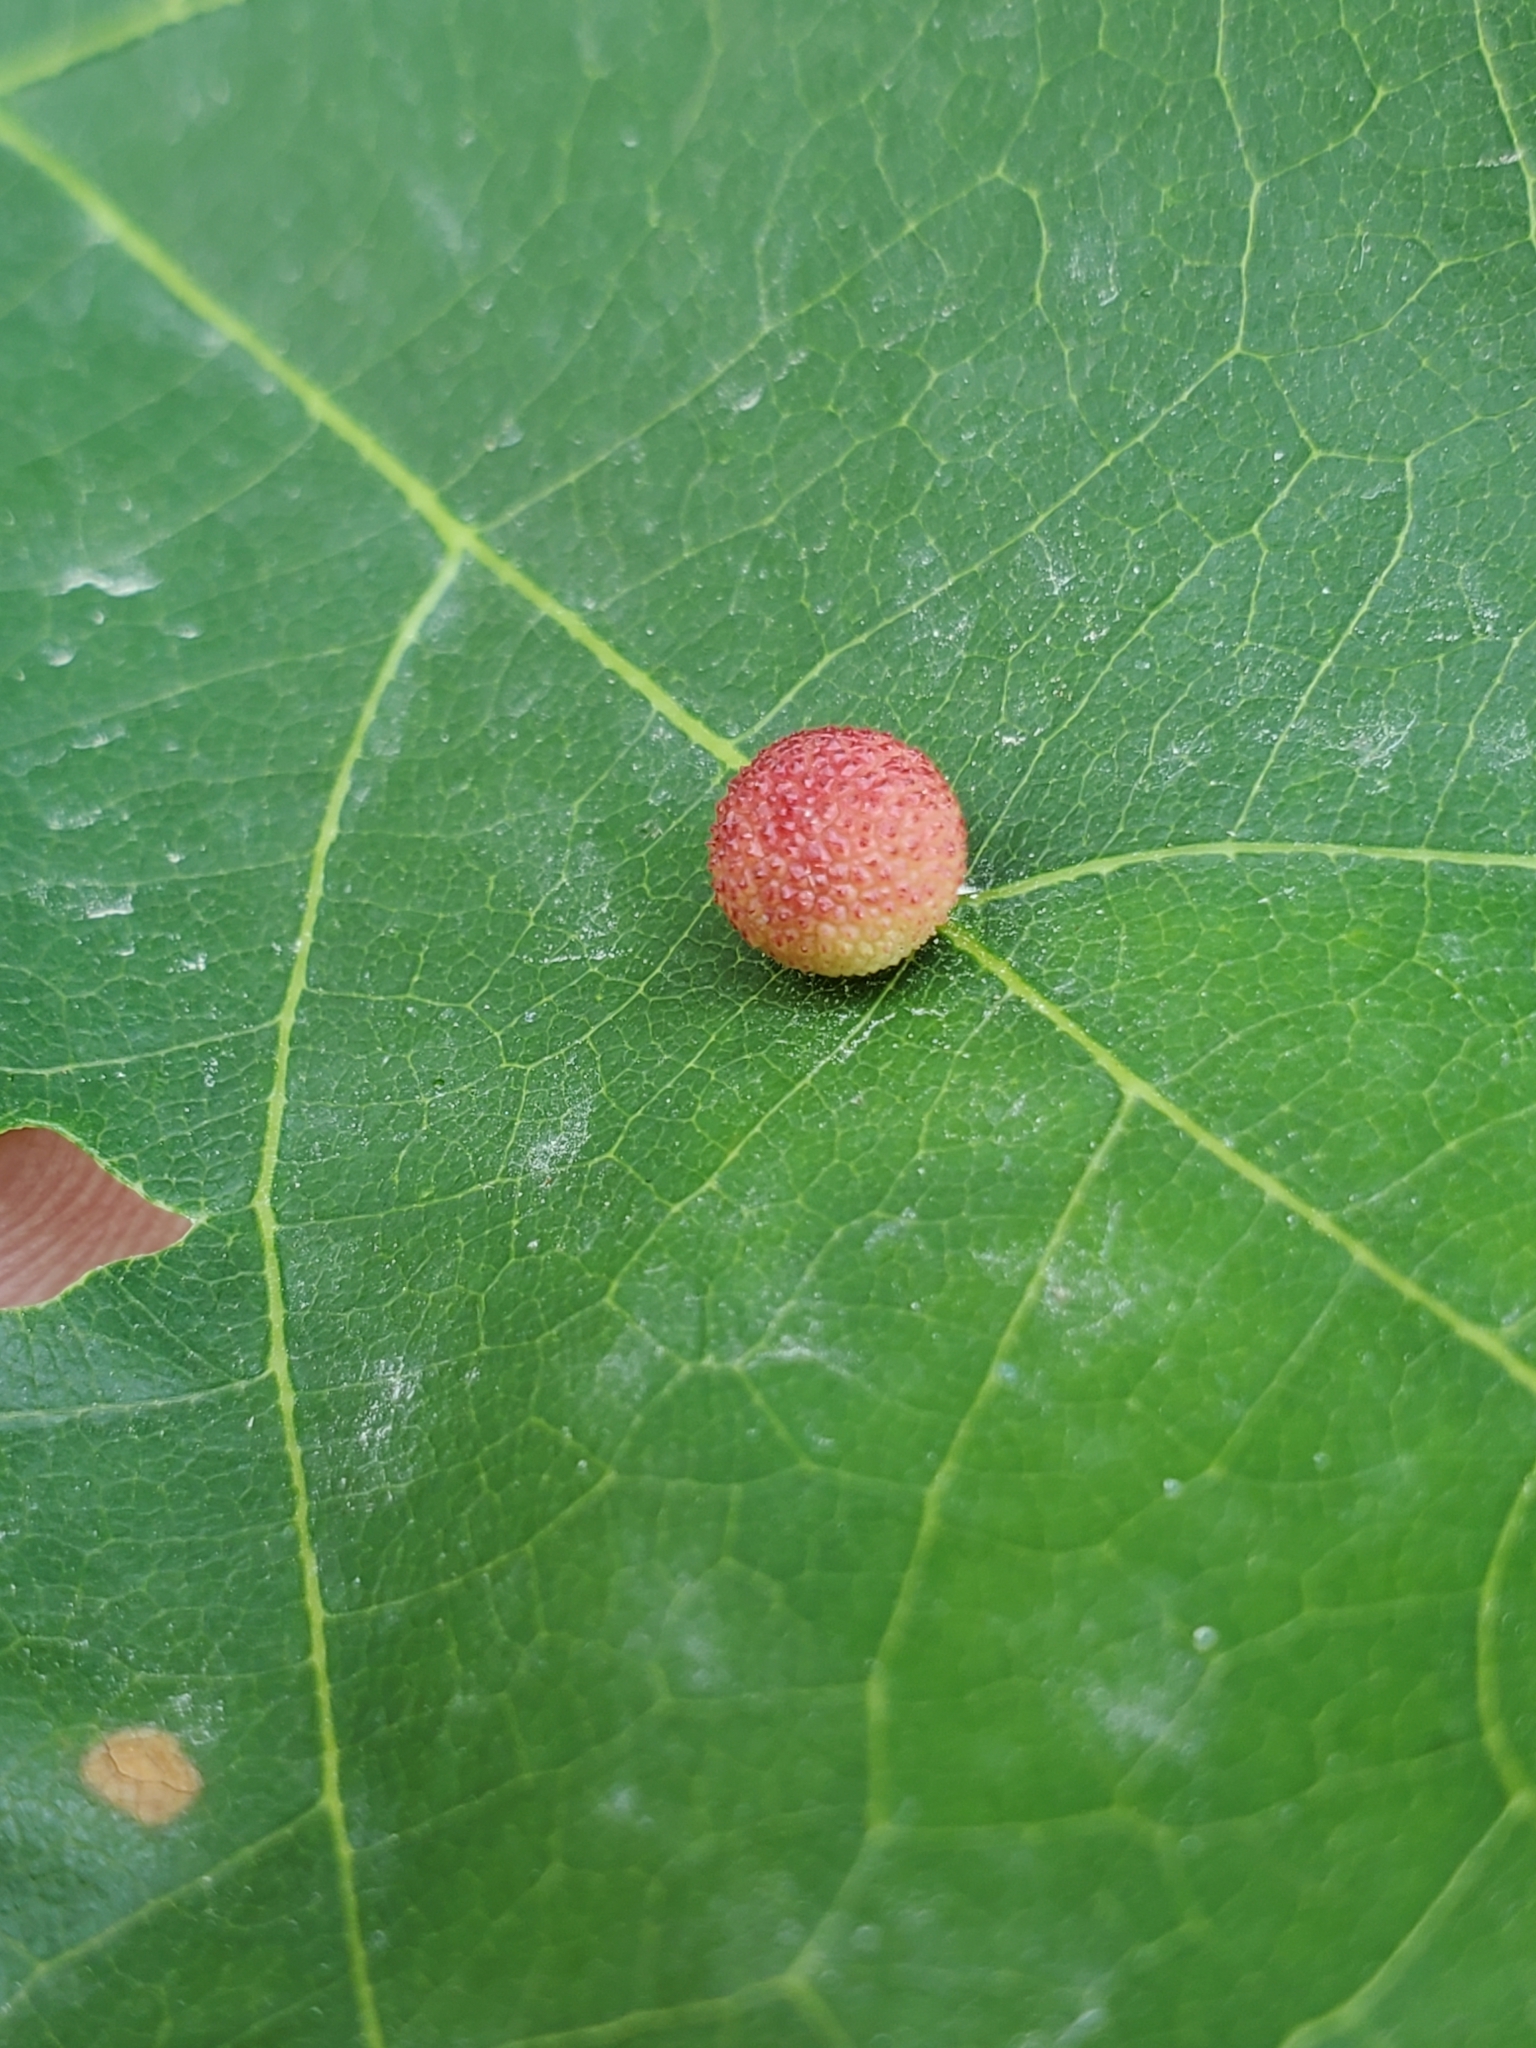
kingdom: Animalia
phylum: Arthropoda
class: Insecta
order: Hymenoptera
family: Cynipidae
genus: Acraspis
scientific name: Acraspis quercushirta
